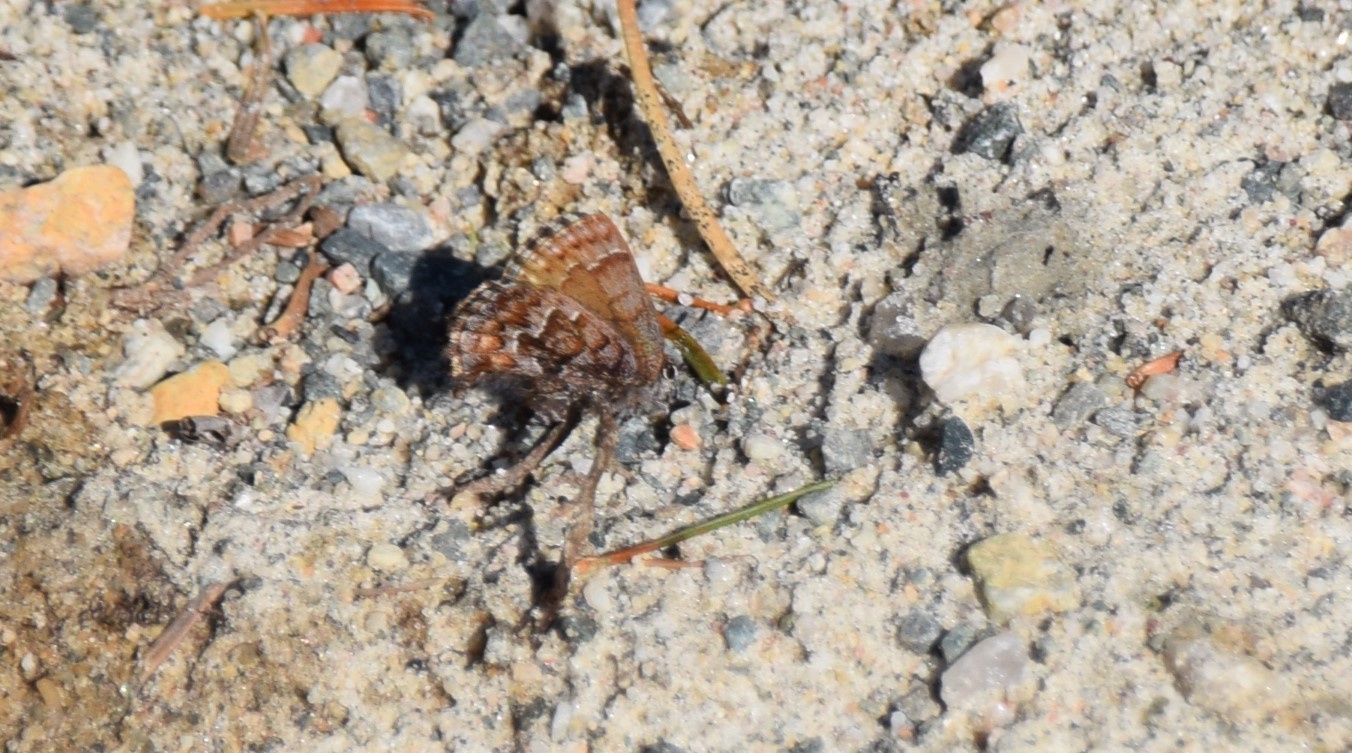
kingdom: Animalia
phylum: Arthropoda
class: Insecta
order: Lepidoptera
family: Lycaenidae
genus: Incisalia
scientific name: Incisalia niphon
